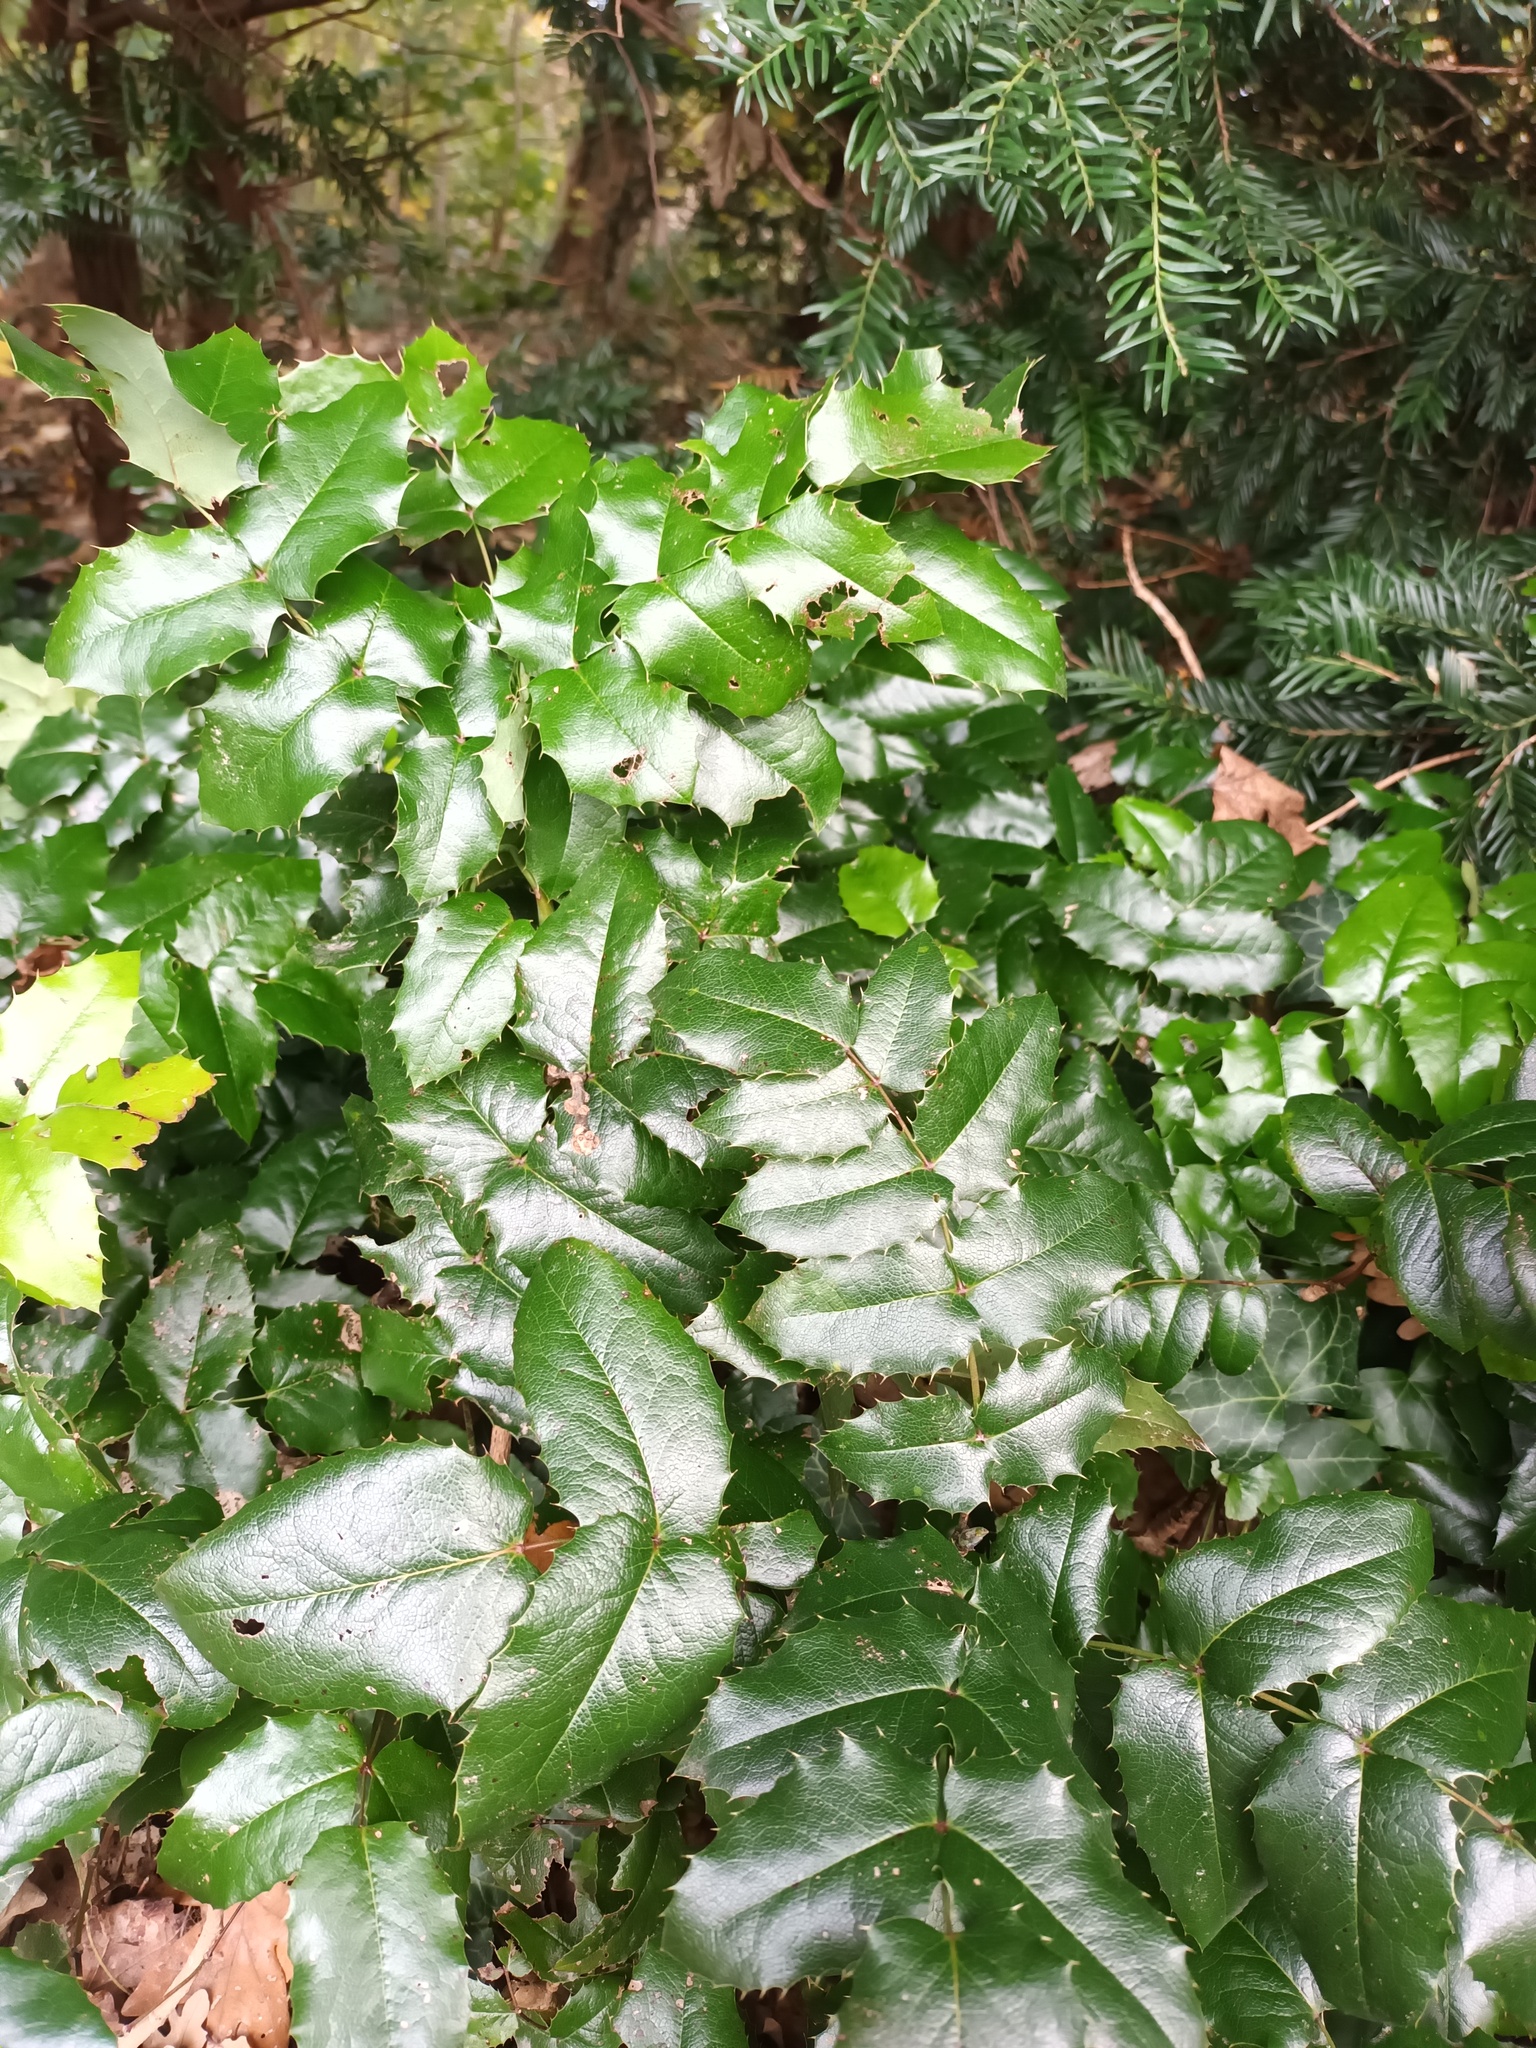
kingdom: Plantae
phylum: Tracheophyta
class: Magnoliopsida
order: Ranunculales
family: Berberidaceae
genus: Mahonia
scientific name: Mahonia aquifolium
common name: Oregon-grape
